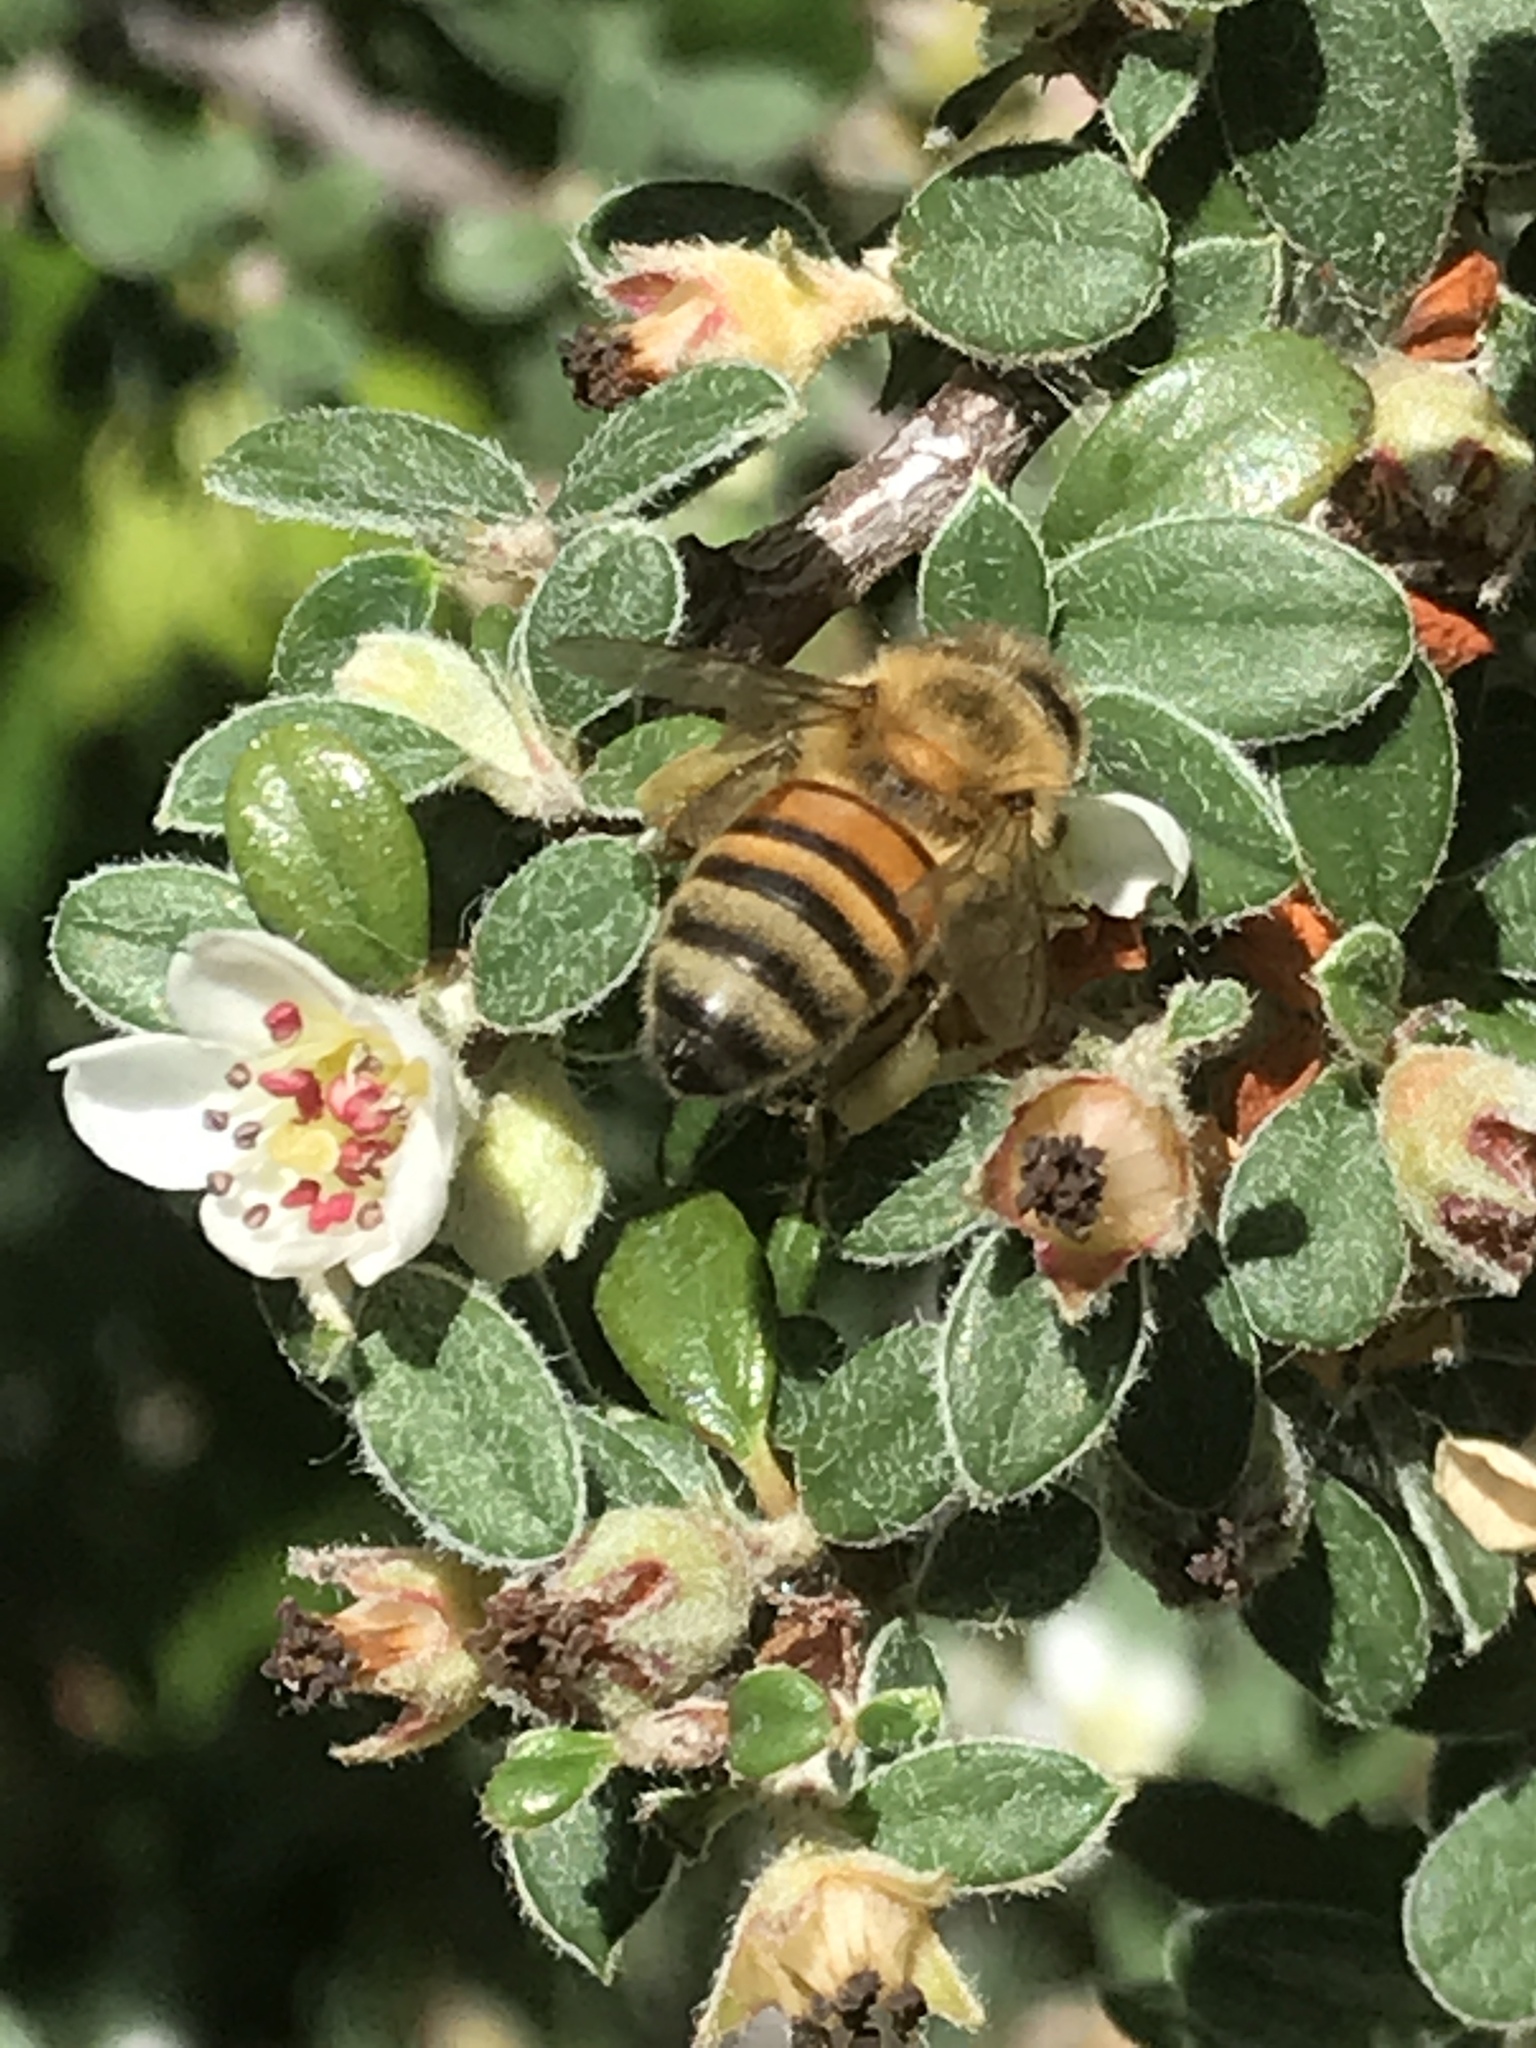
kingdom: Animalia
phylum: Arthropoda
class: Insecta
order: Hymenoptera
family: Apidae
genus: Apis
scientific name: Apis mellifera
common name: Honey bee
